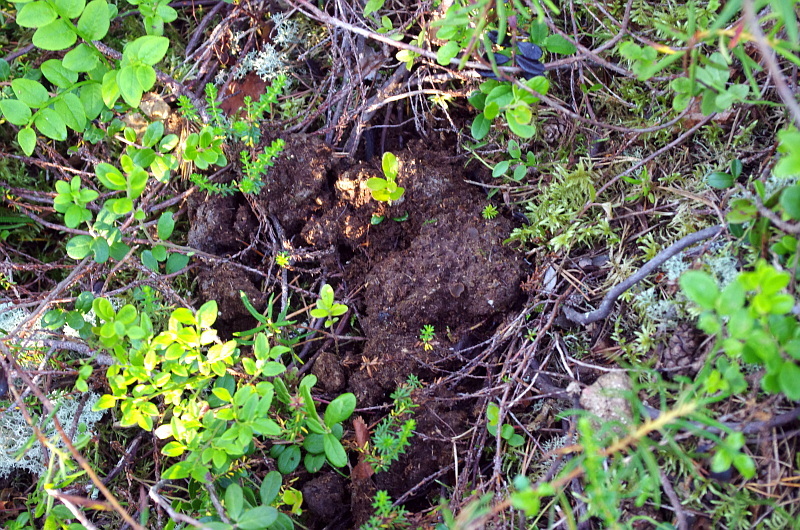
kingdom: Animalia
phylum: Chordata
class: Mammalia
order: Carnivora
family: Ursidae
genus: Ursus
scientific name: Ursus arctos
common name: Brown bear
